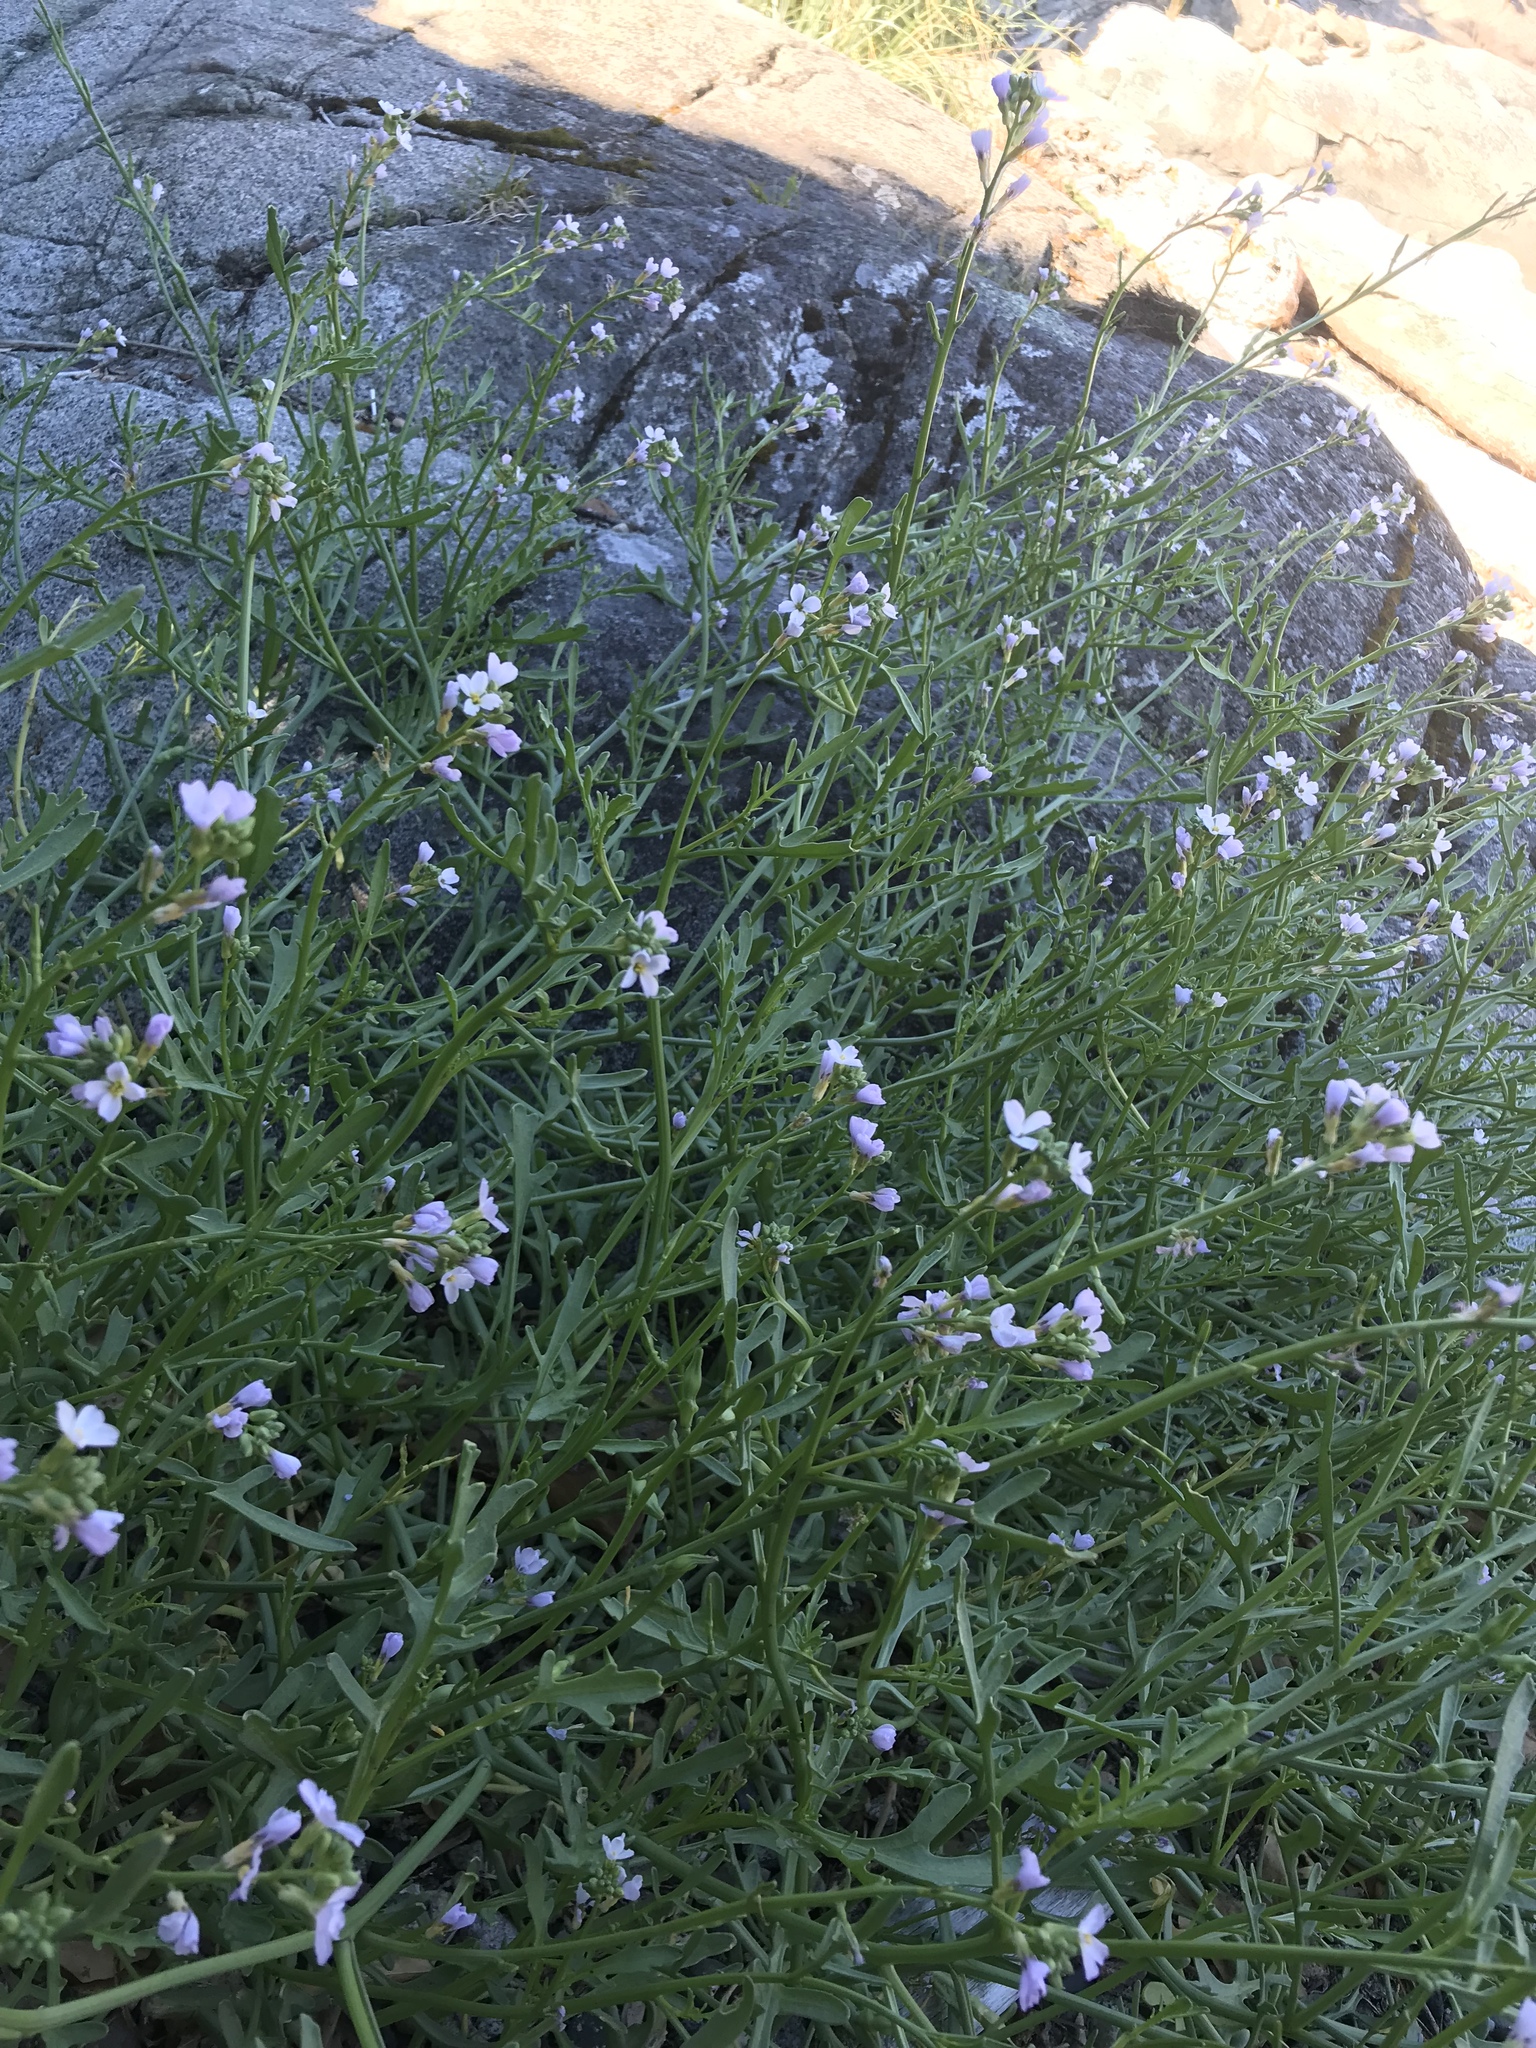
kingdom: Plantae
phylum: Tracheophyta
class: Magnoliopsida
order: Brassicales
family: Brassicaceae
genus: Cakile
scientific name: Cakile maritima
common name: Sea rocket
